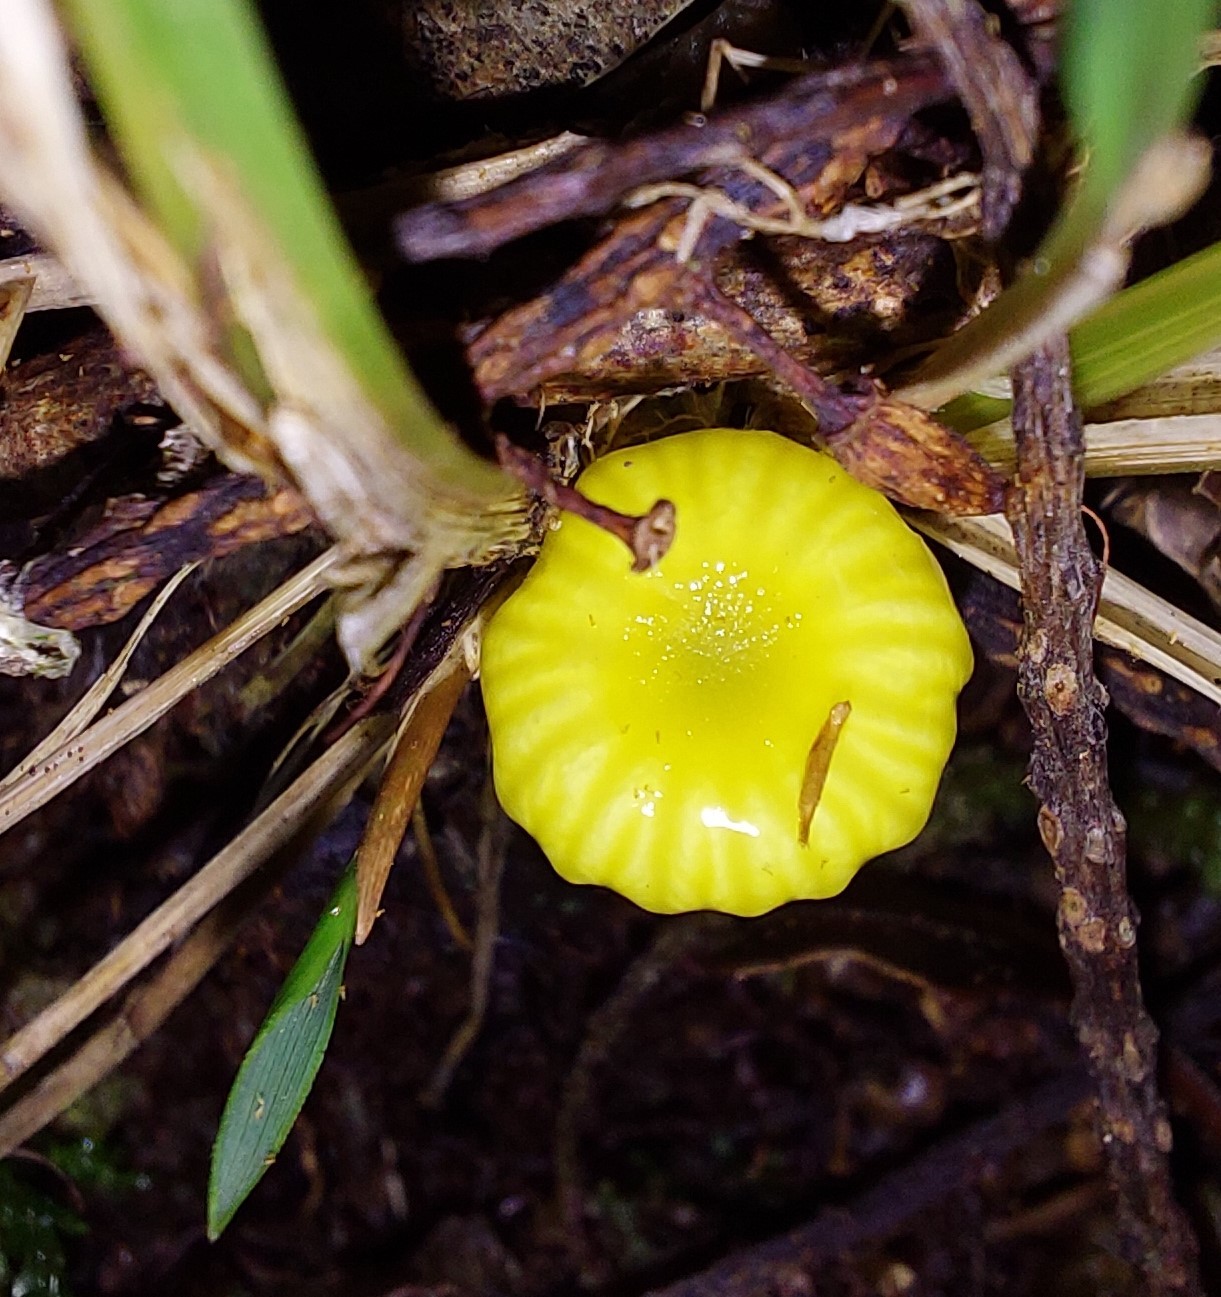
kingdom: Fungi
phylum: Basidiomycota
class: Agaricomycetes
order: Agaricales
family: Hygrophoraceae
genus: Gloioxanthomyces
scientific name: Gloioxanthomyces
